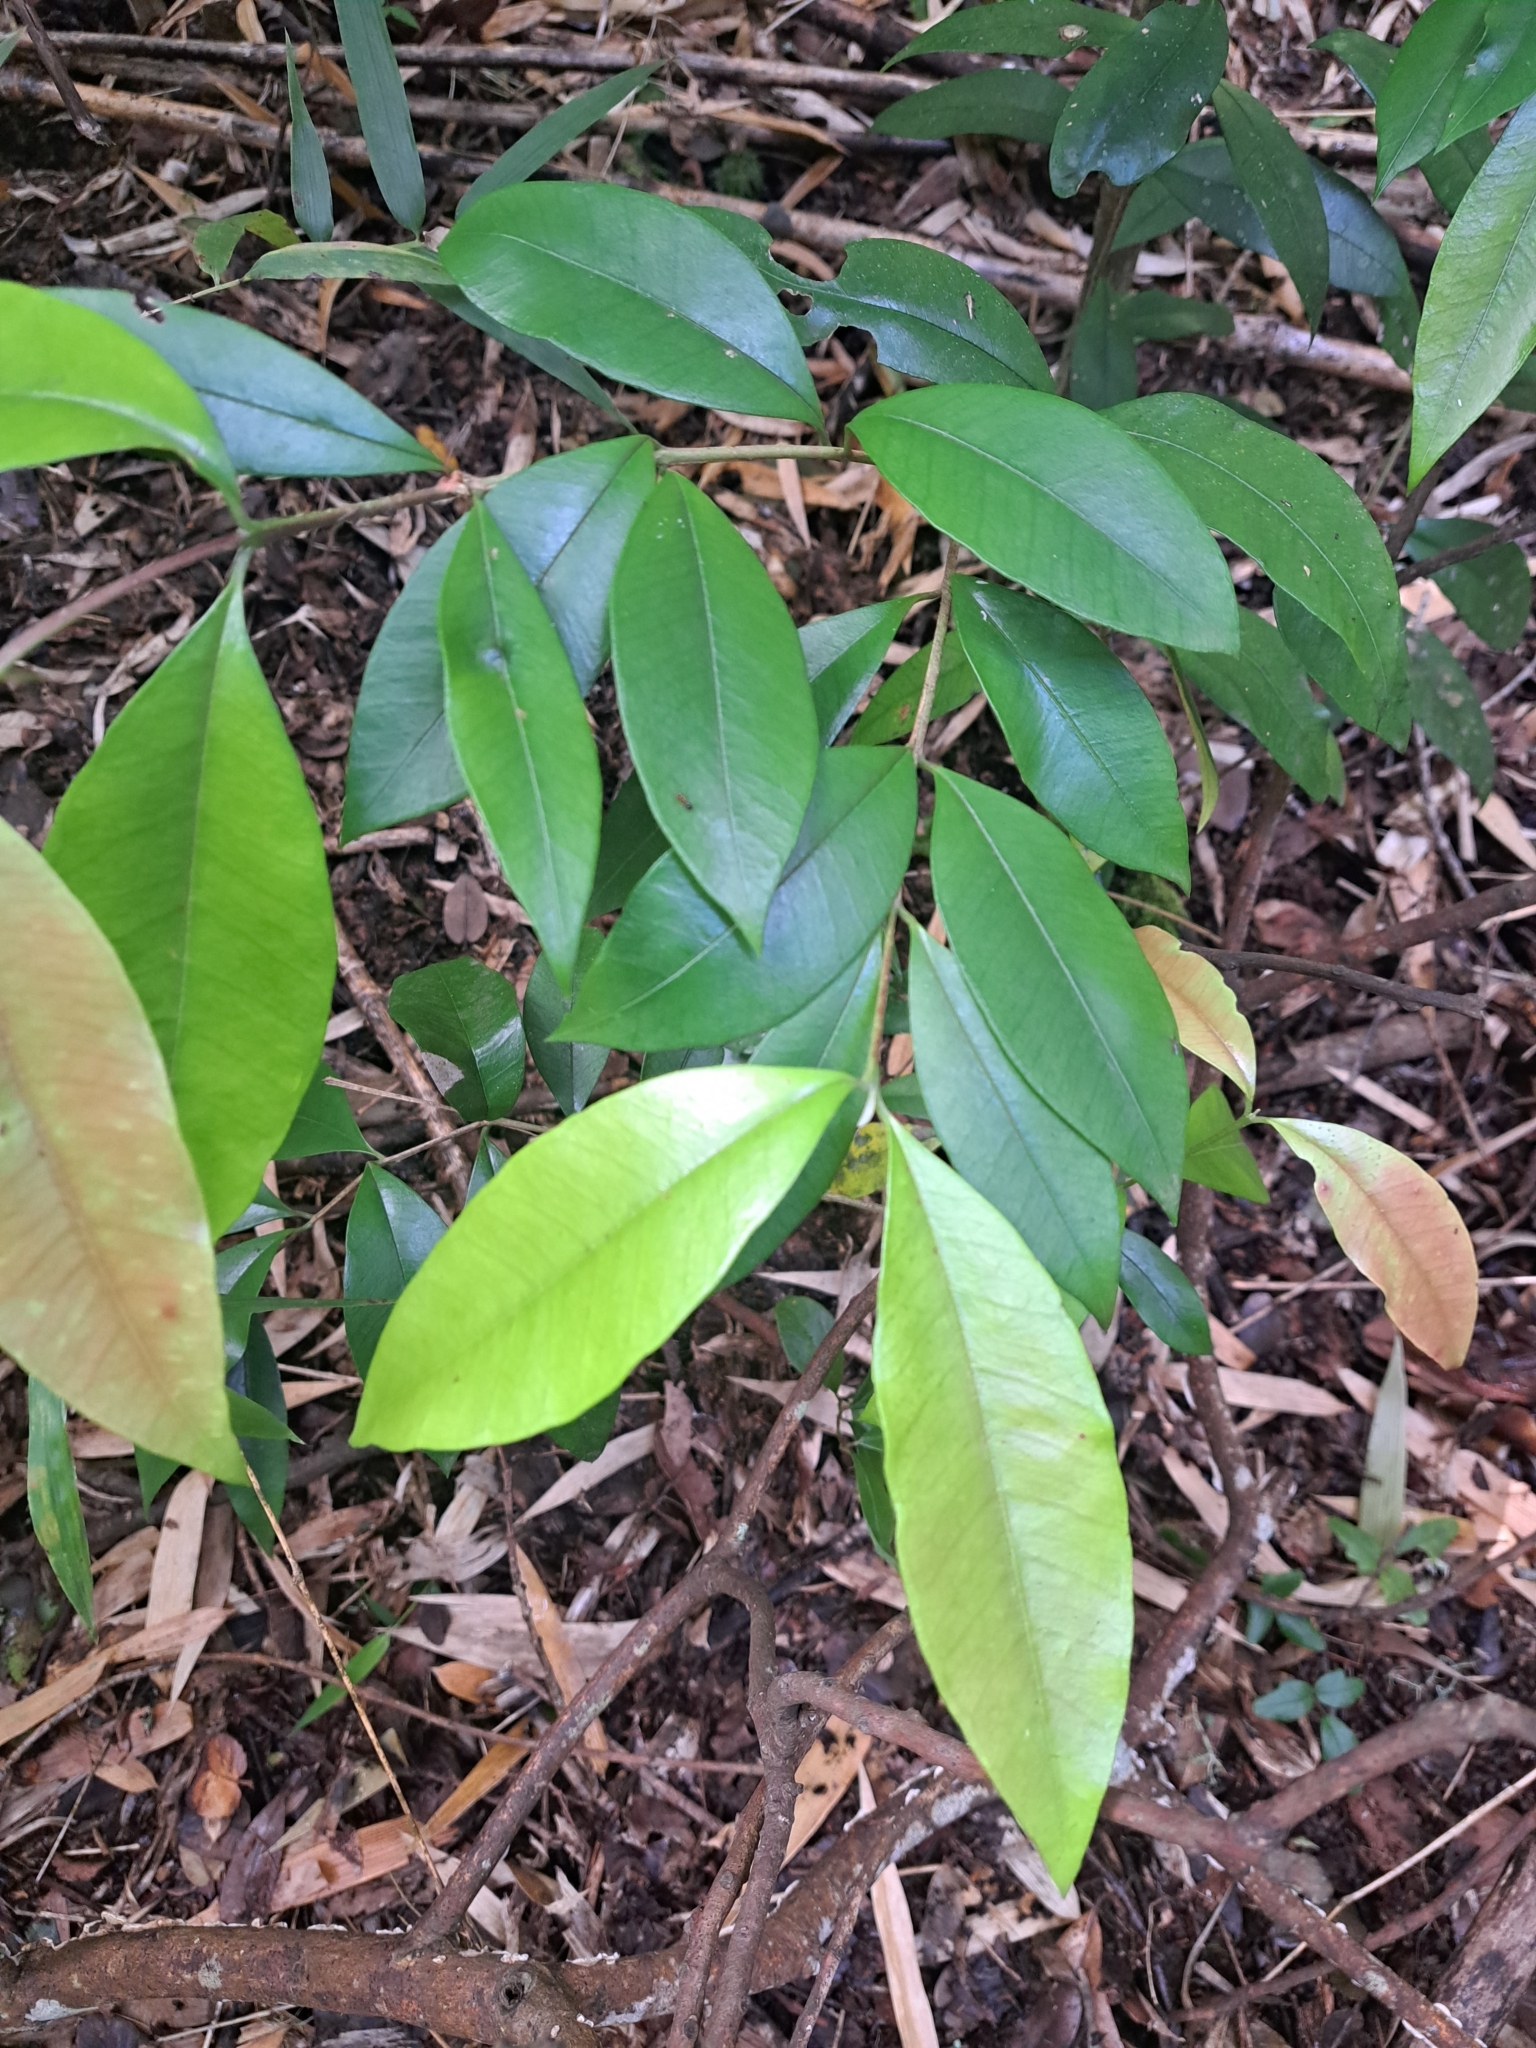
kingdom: Plantae
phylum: Tracheophyta
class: Magnoliopsida
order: Myrtales
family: Myrtaceae
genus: Myrceugenia
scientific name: Myrceugenia planipes
